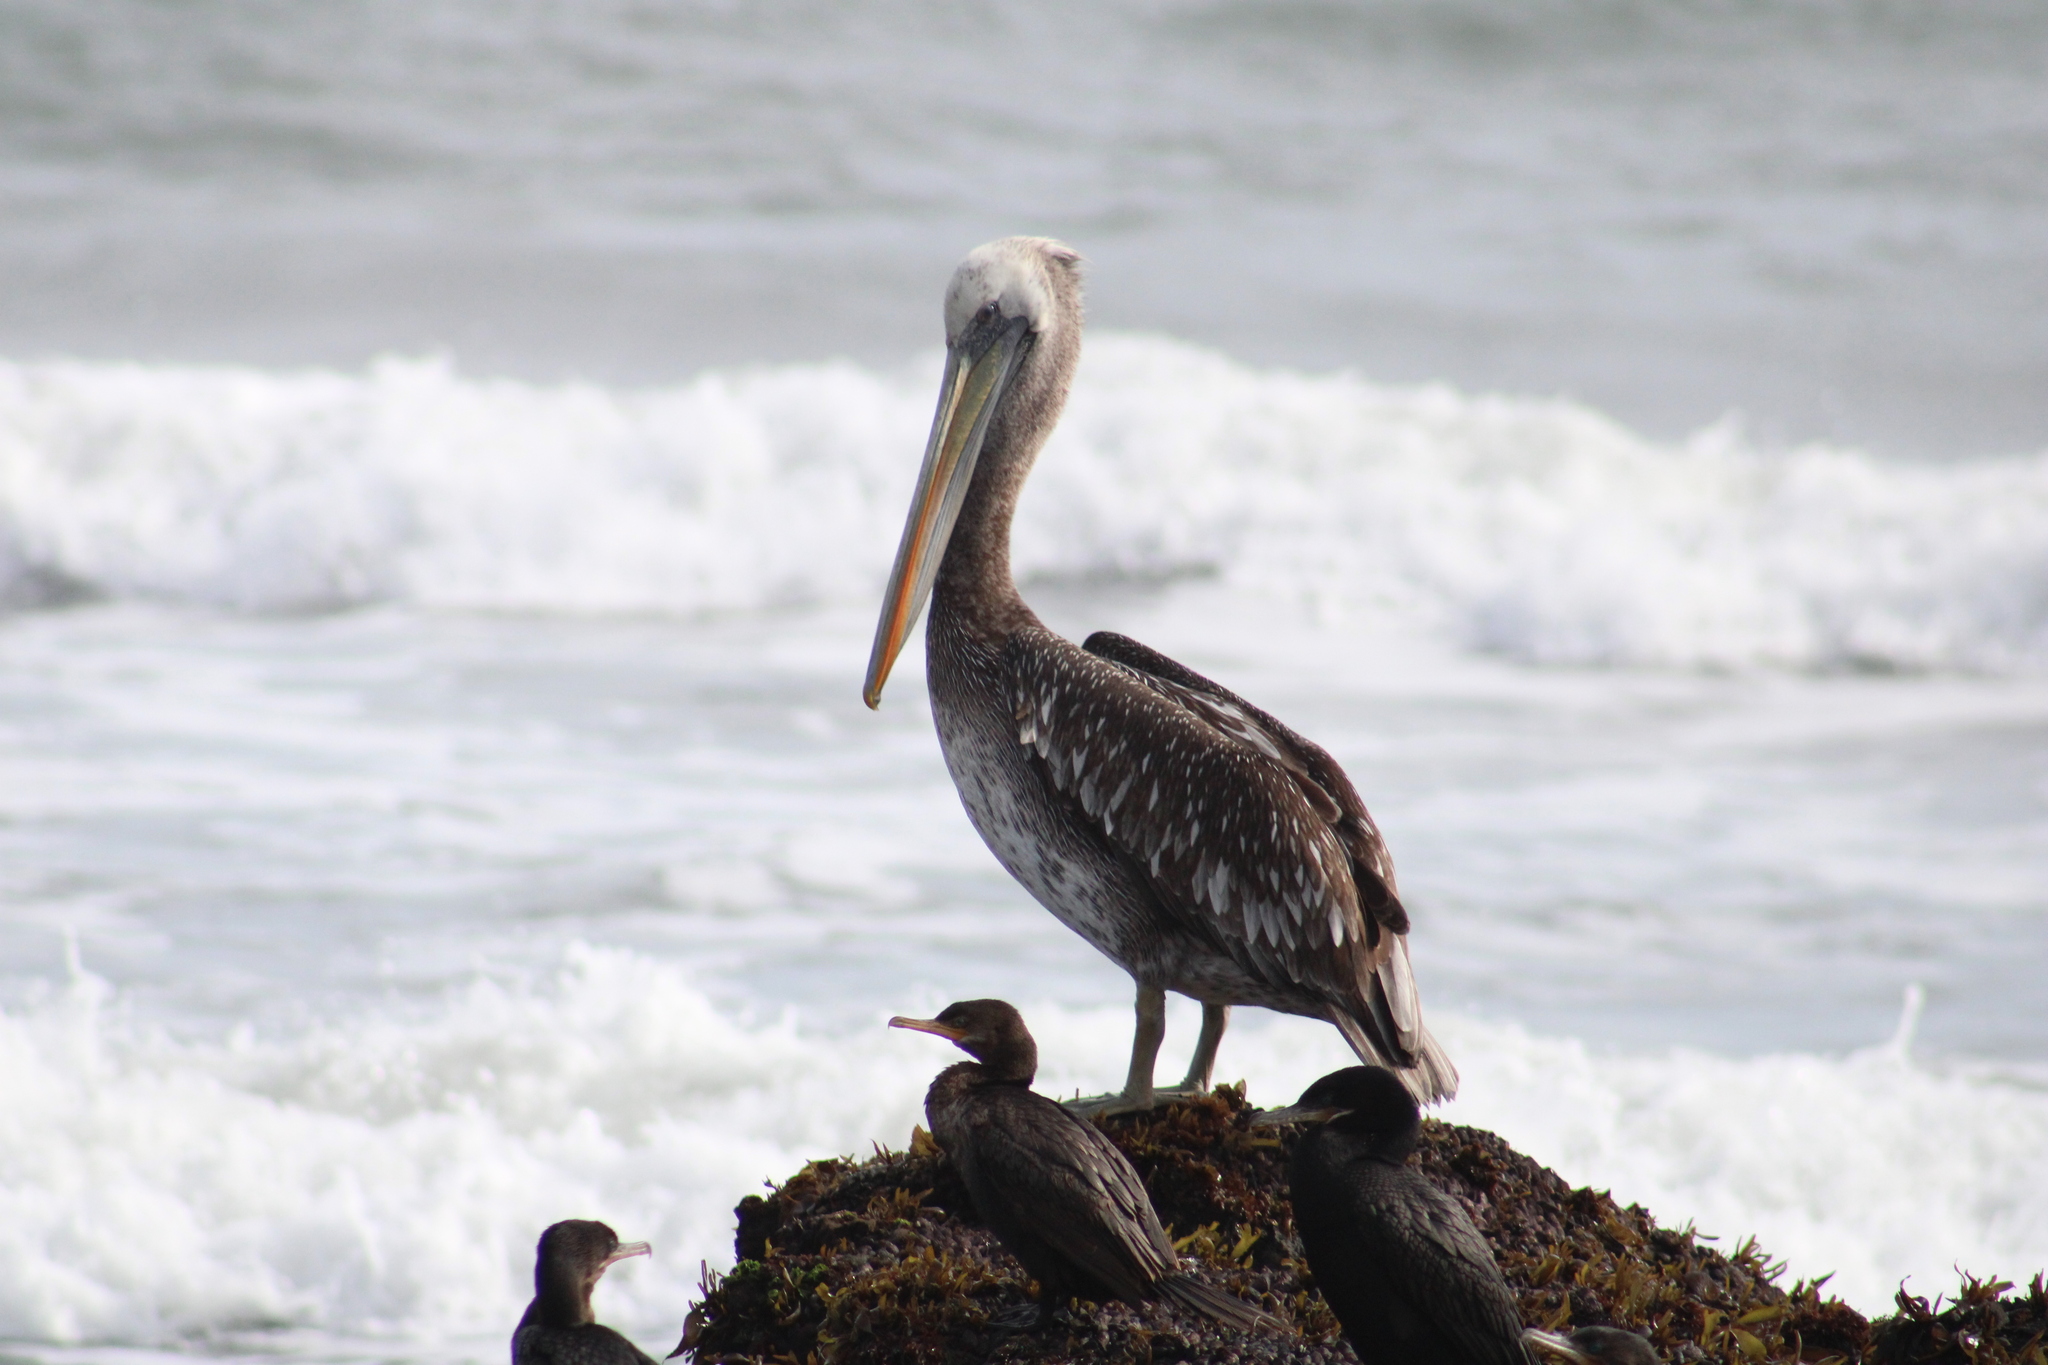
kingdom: Animalia
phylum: Chordata
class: Aves
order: Pelecaniformes
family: Pelecanidae
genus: Pelecanus
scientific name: Pelecanus thagus
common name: Peruvian pelican
